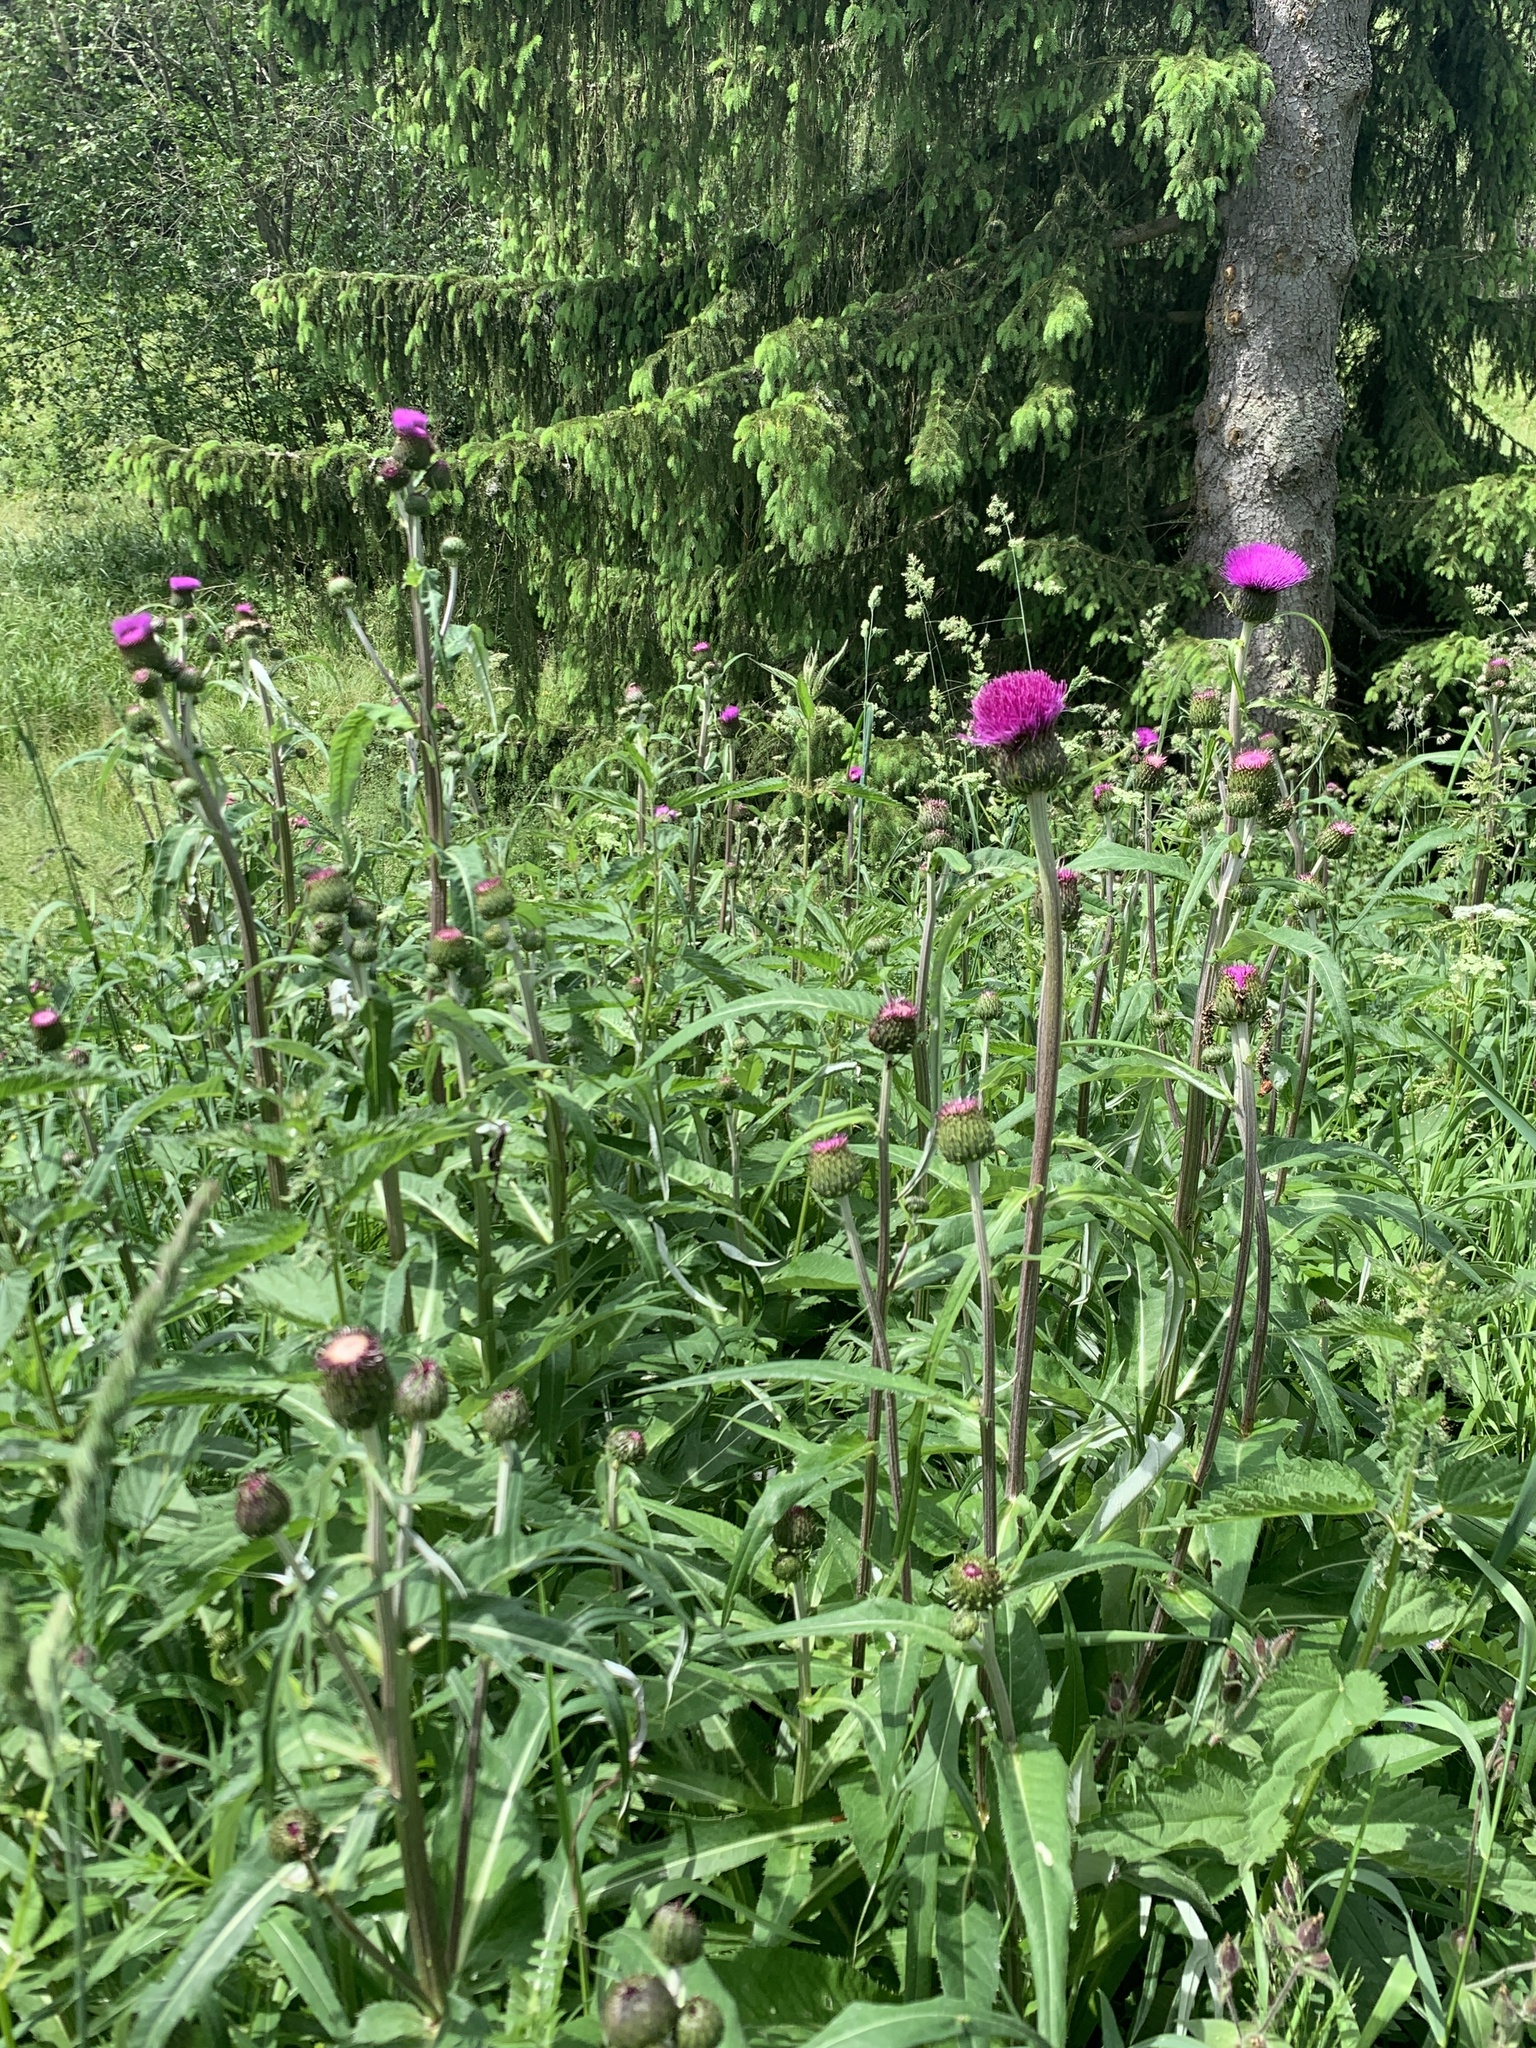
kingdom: Plantae
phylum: Tracheophyta
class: Magnoliopsida
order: Asterales
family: Asteraceae
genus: Cirsium
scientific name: Cirsium heterophyllum
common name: Melancholy thistle
